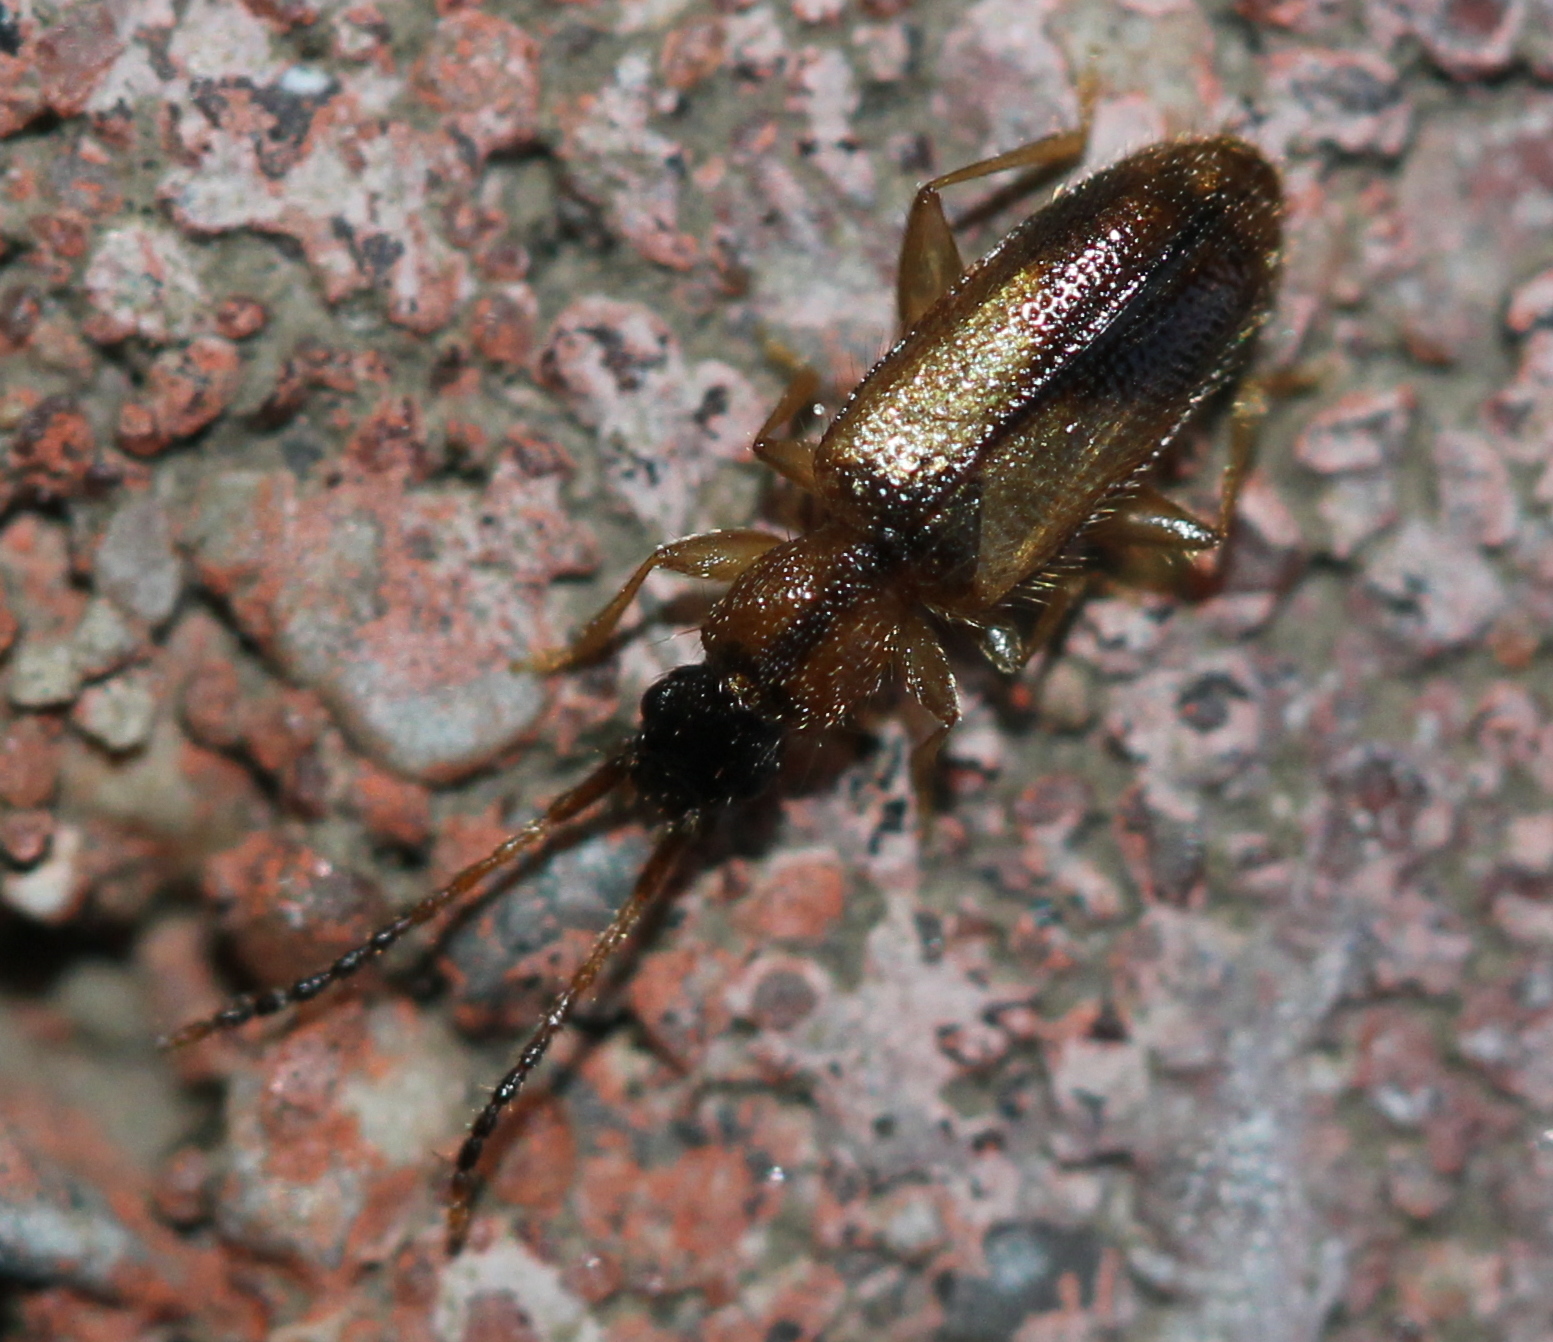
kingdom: Animalia
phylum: Arthropoda
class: Insecta
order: Coleoptera
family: Silvanidae
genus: Telephanus
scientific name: Telephanus velox
